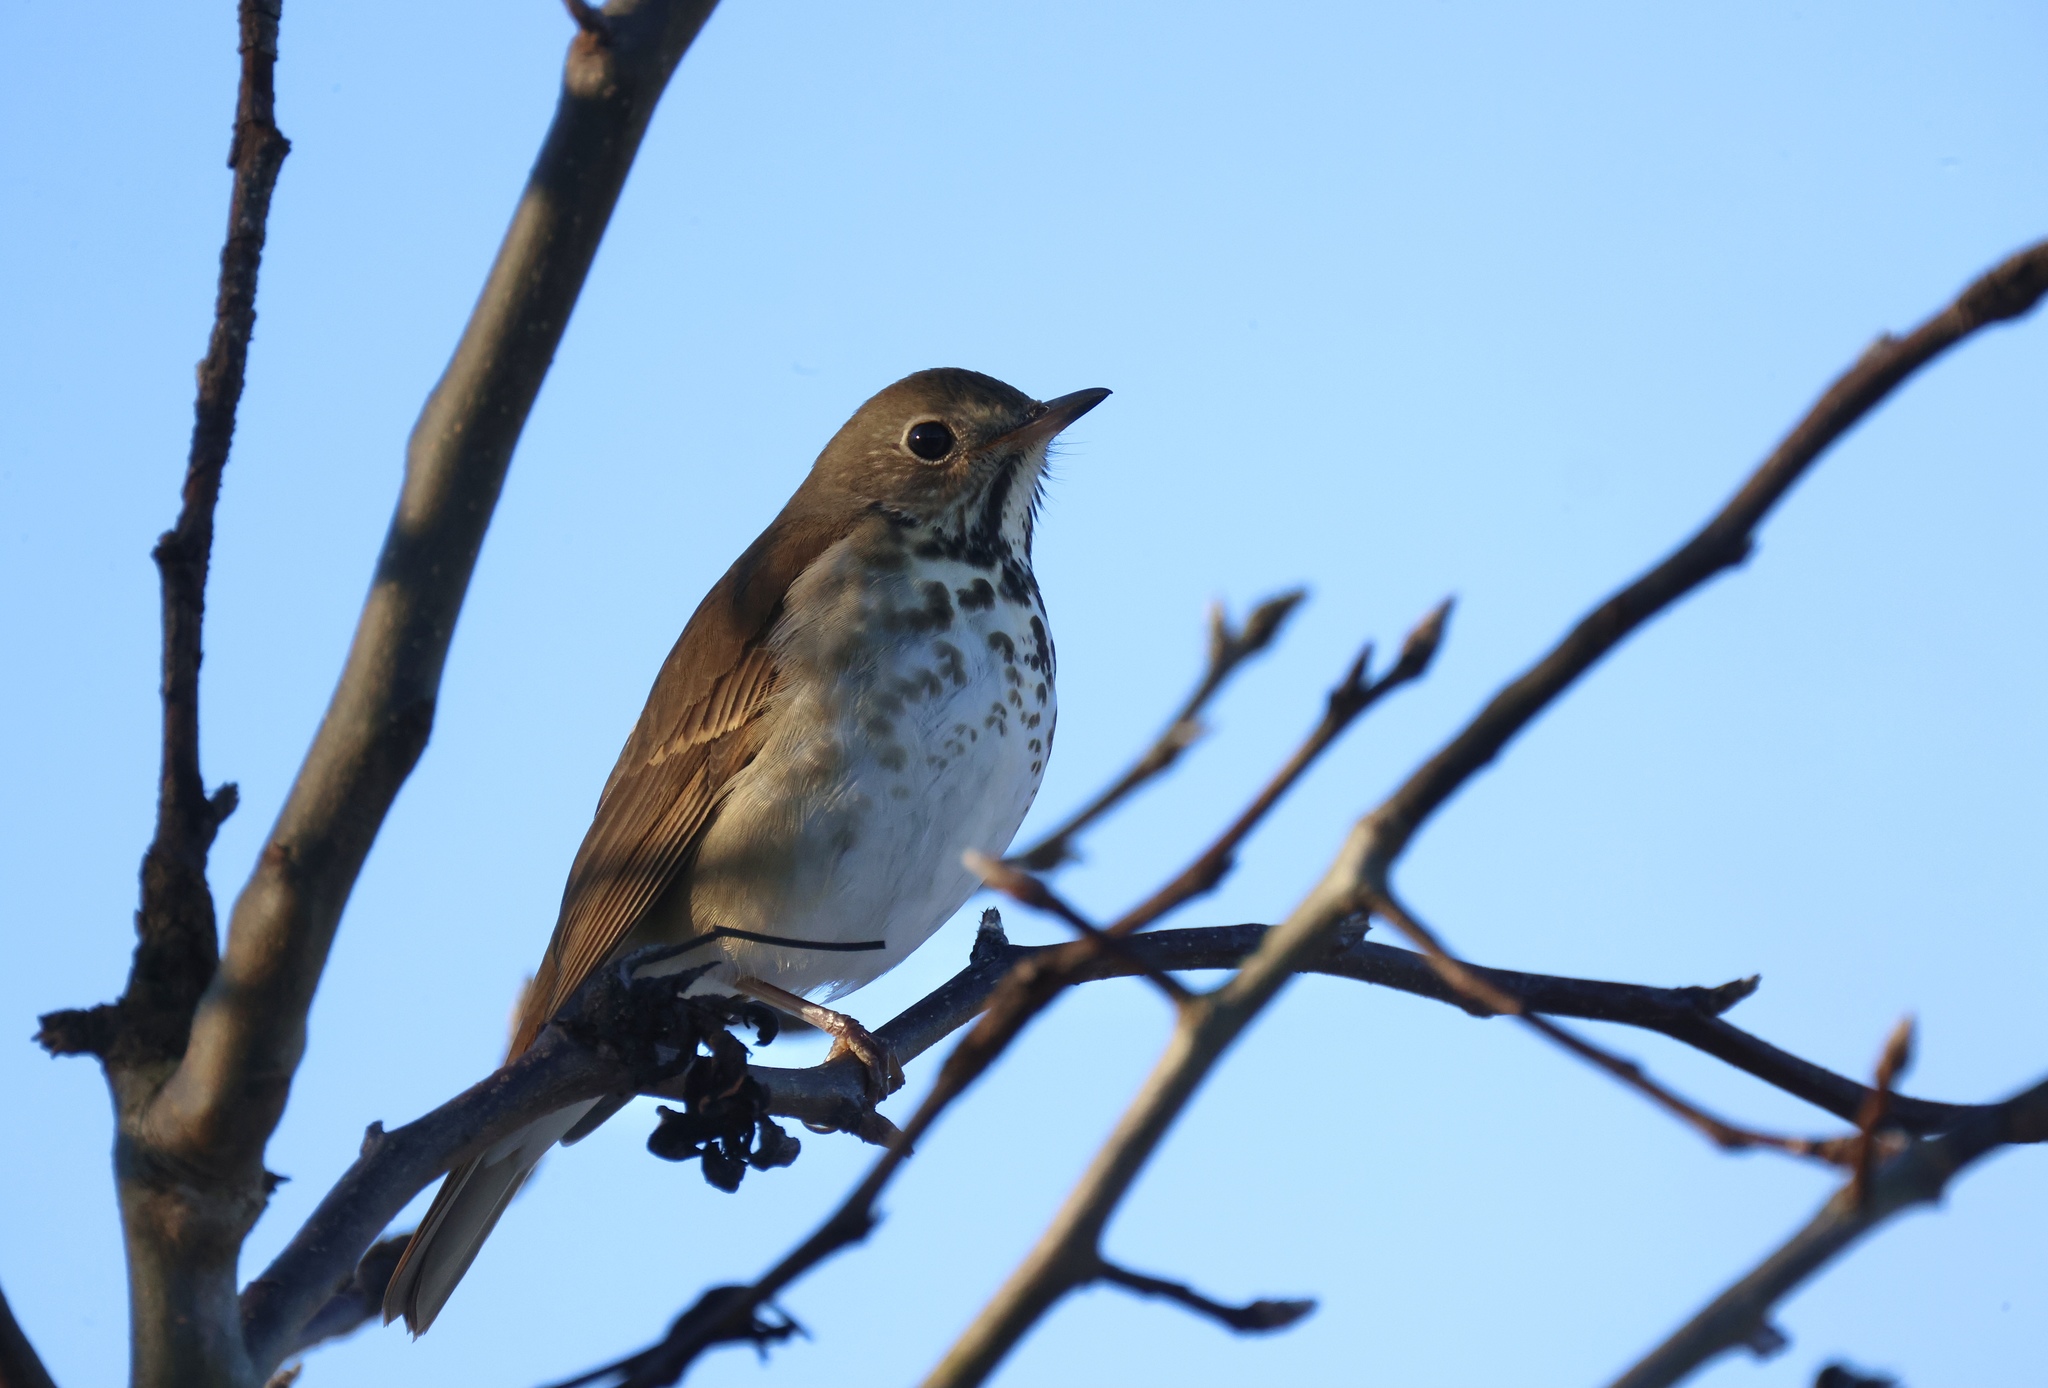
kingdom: Animalia
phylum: Chordata
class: Aves
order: Passeriformes
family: Turdidae
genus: Catharus
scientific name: Catharus guttatus
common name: Hermit thrush
